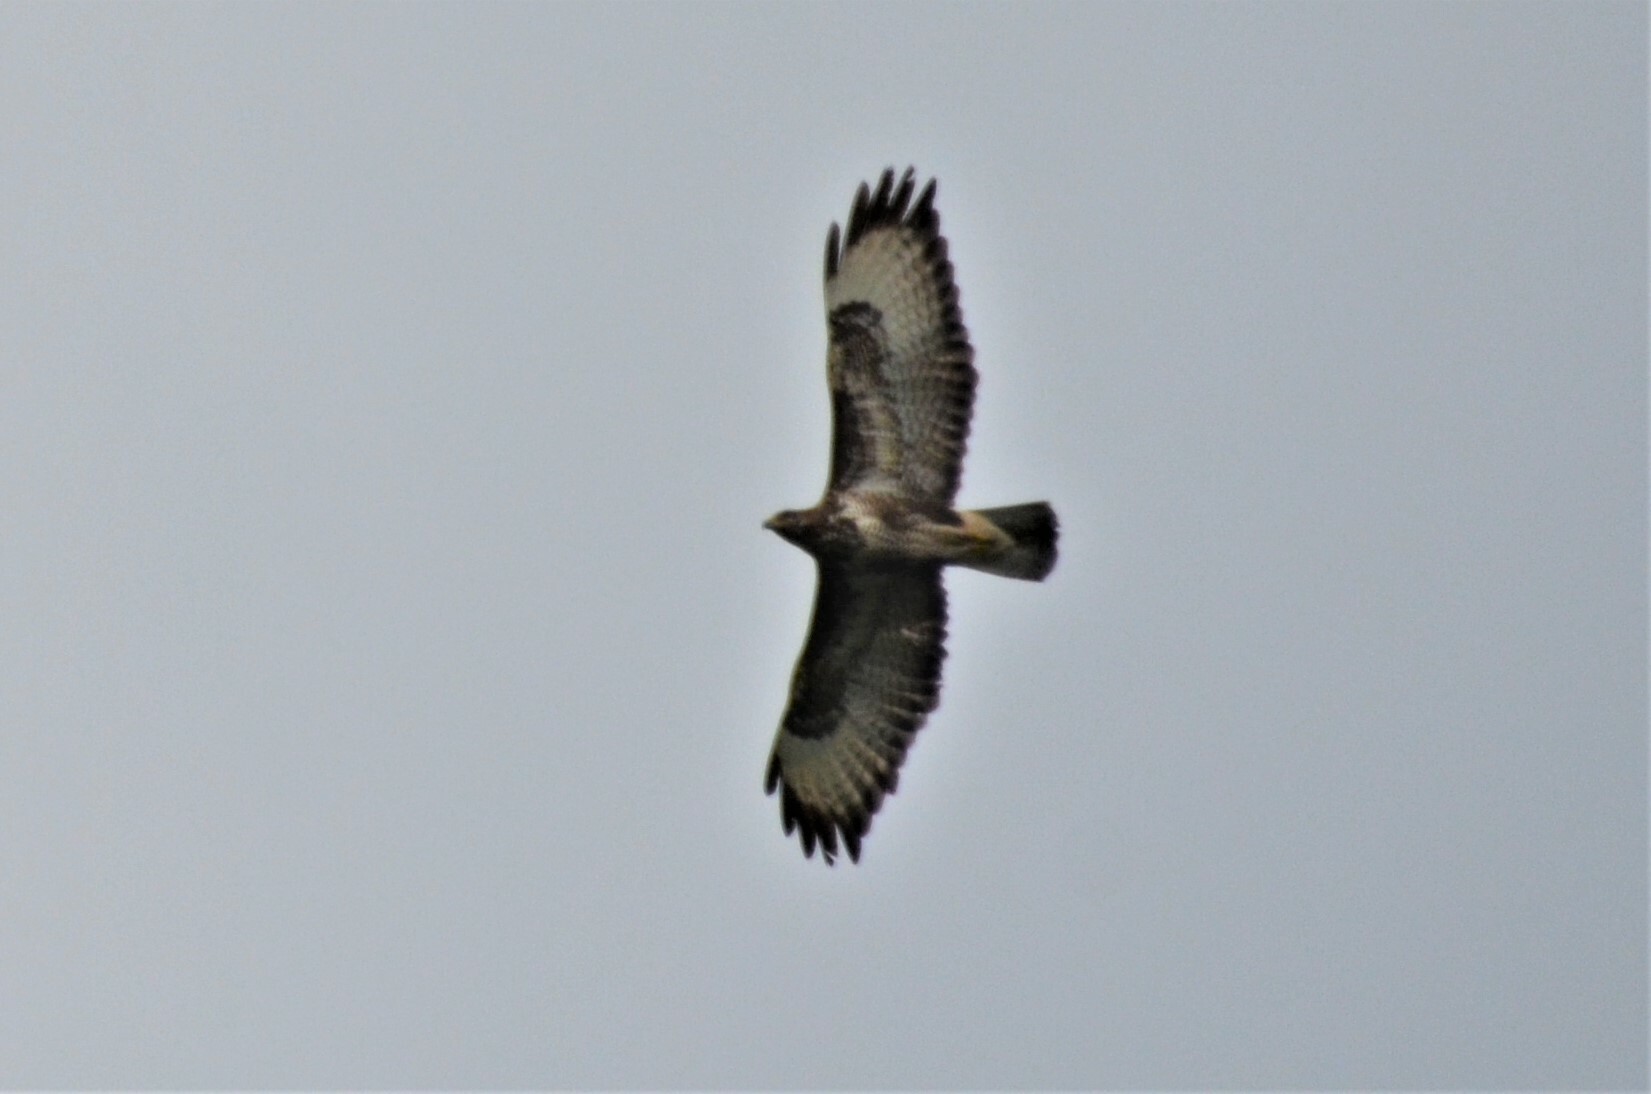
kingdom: Animalia
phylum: Chordata
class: Aves
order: Accipitriformes
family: Accipitridae
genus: Buteo
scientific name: Buteo buteo
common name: Common buzzard
